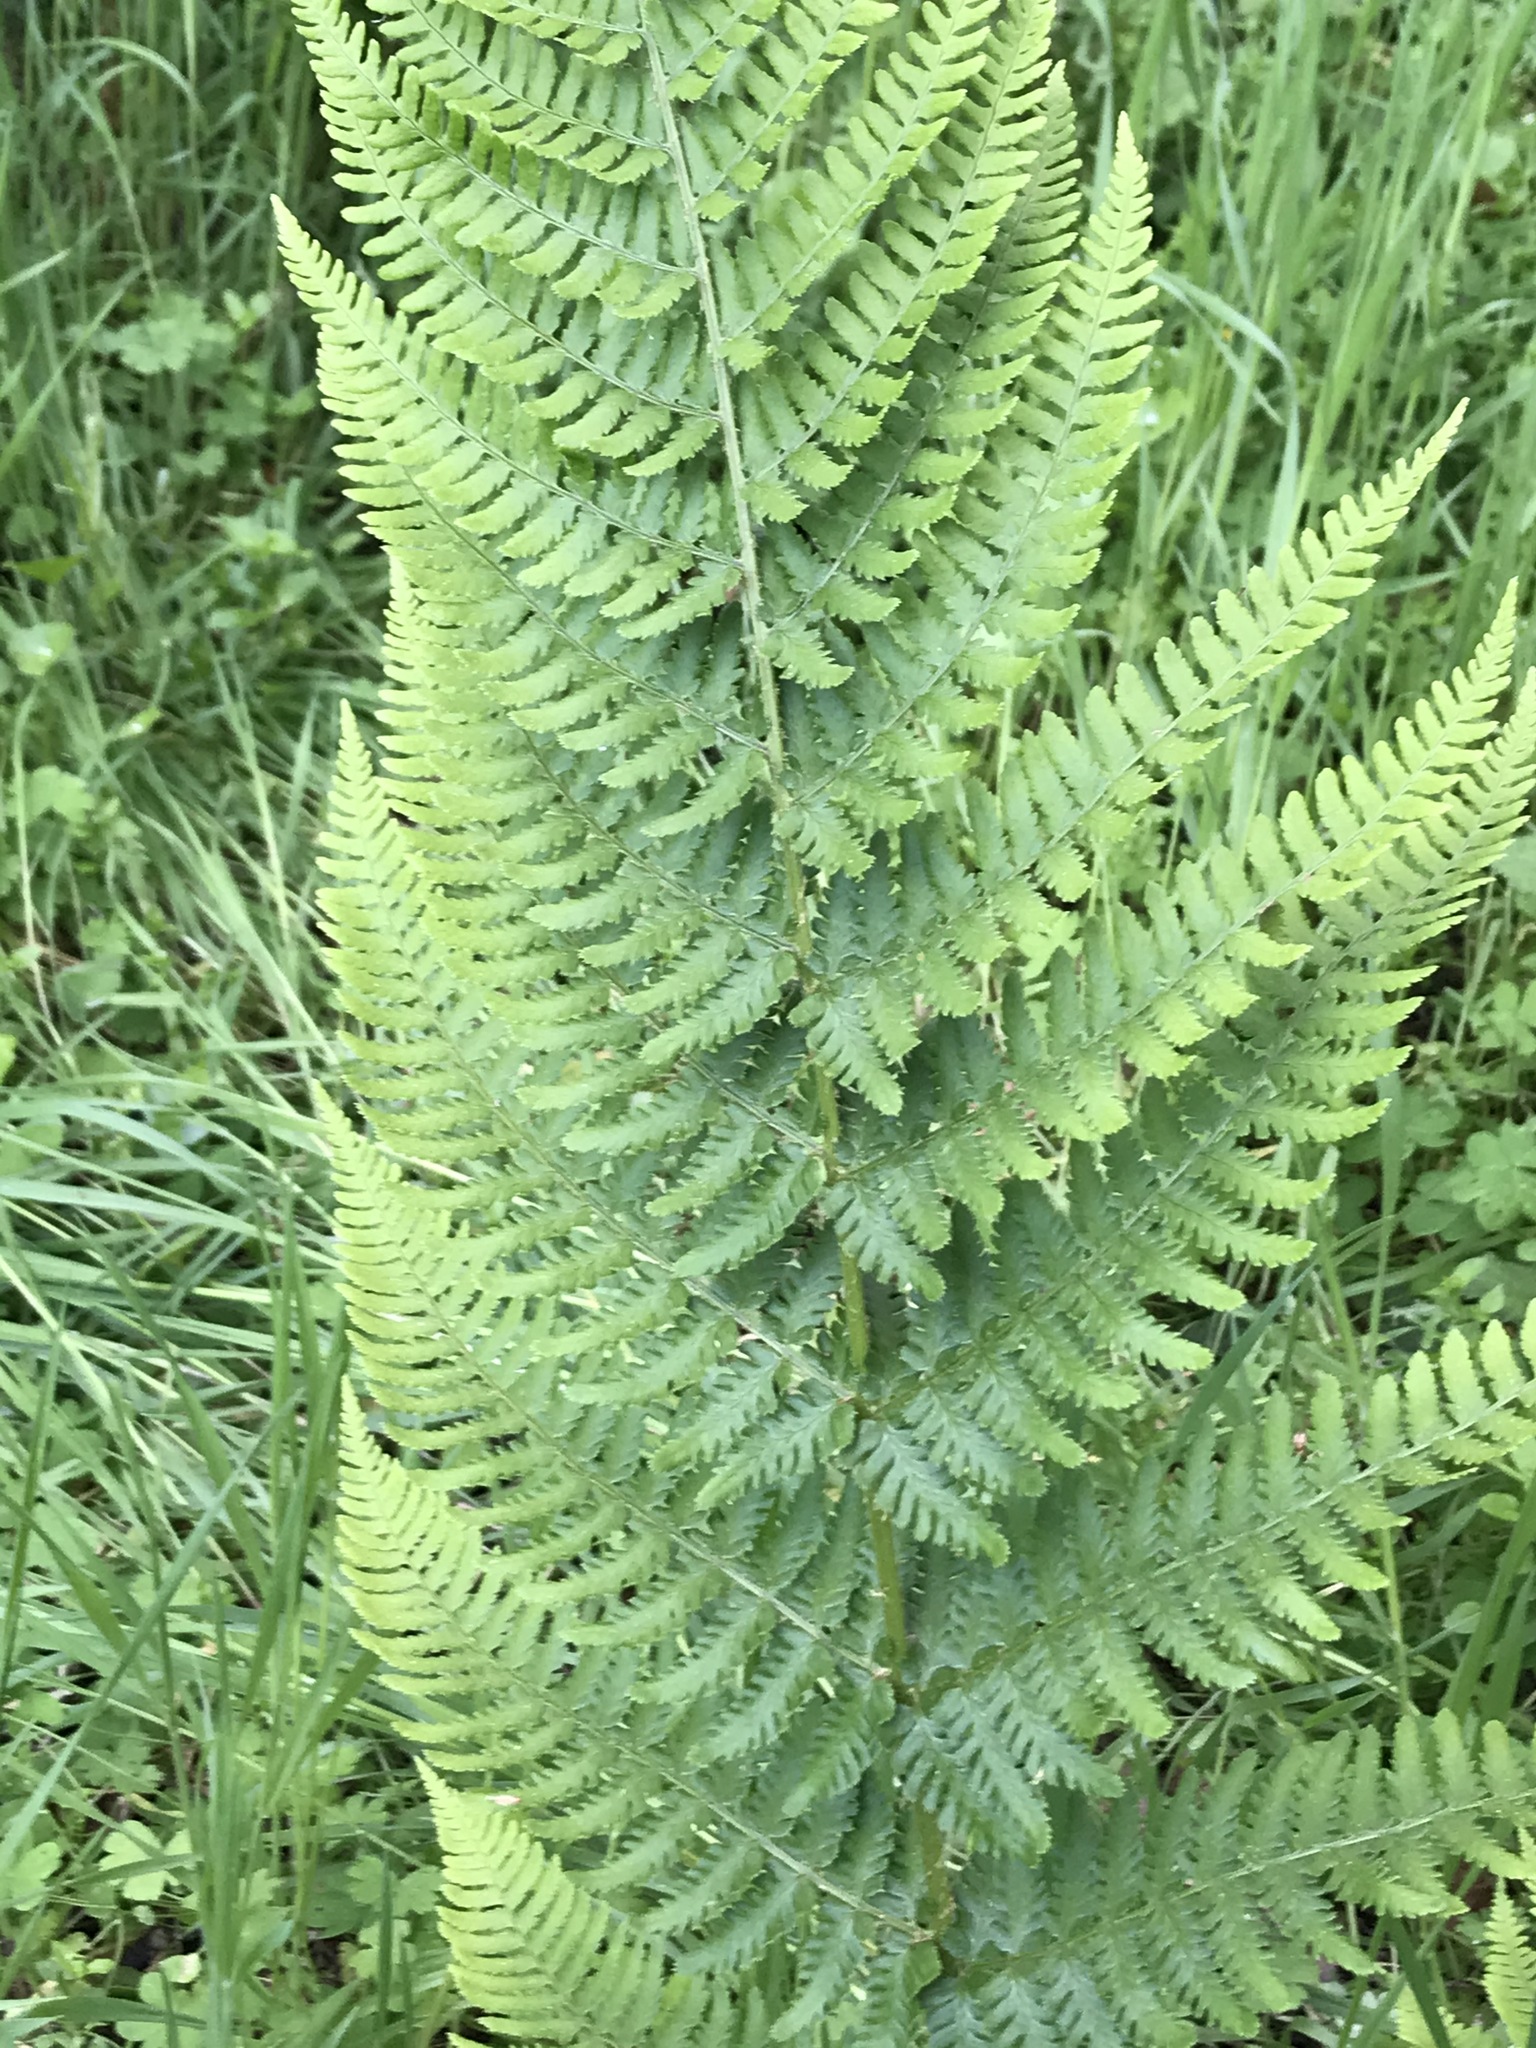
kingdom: Plantae
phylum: Tracheophyta
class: Polypodiopsida
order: Polypodiales
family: Dryopteridaceae
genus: Dryopteris
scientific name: Dryopteris arguta
